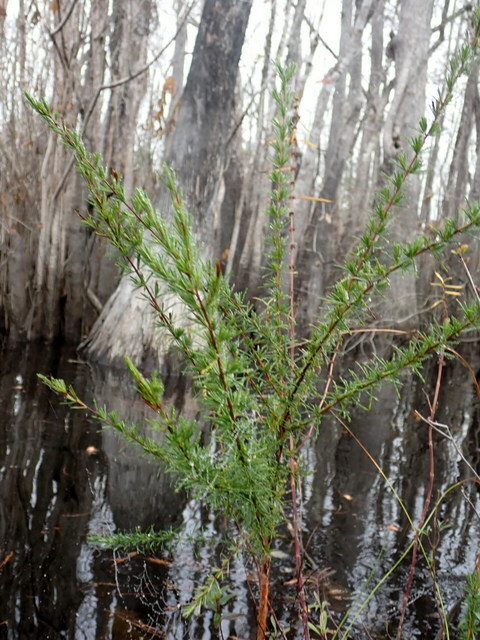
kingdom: Plantae
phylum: Tracheophyta
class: Magnoliopsida
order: Malpighiales
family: Hypericaceae
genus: Hypericum
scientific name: Hypericum chapmanii
